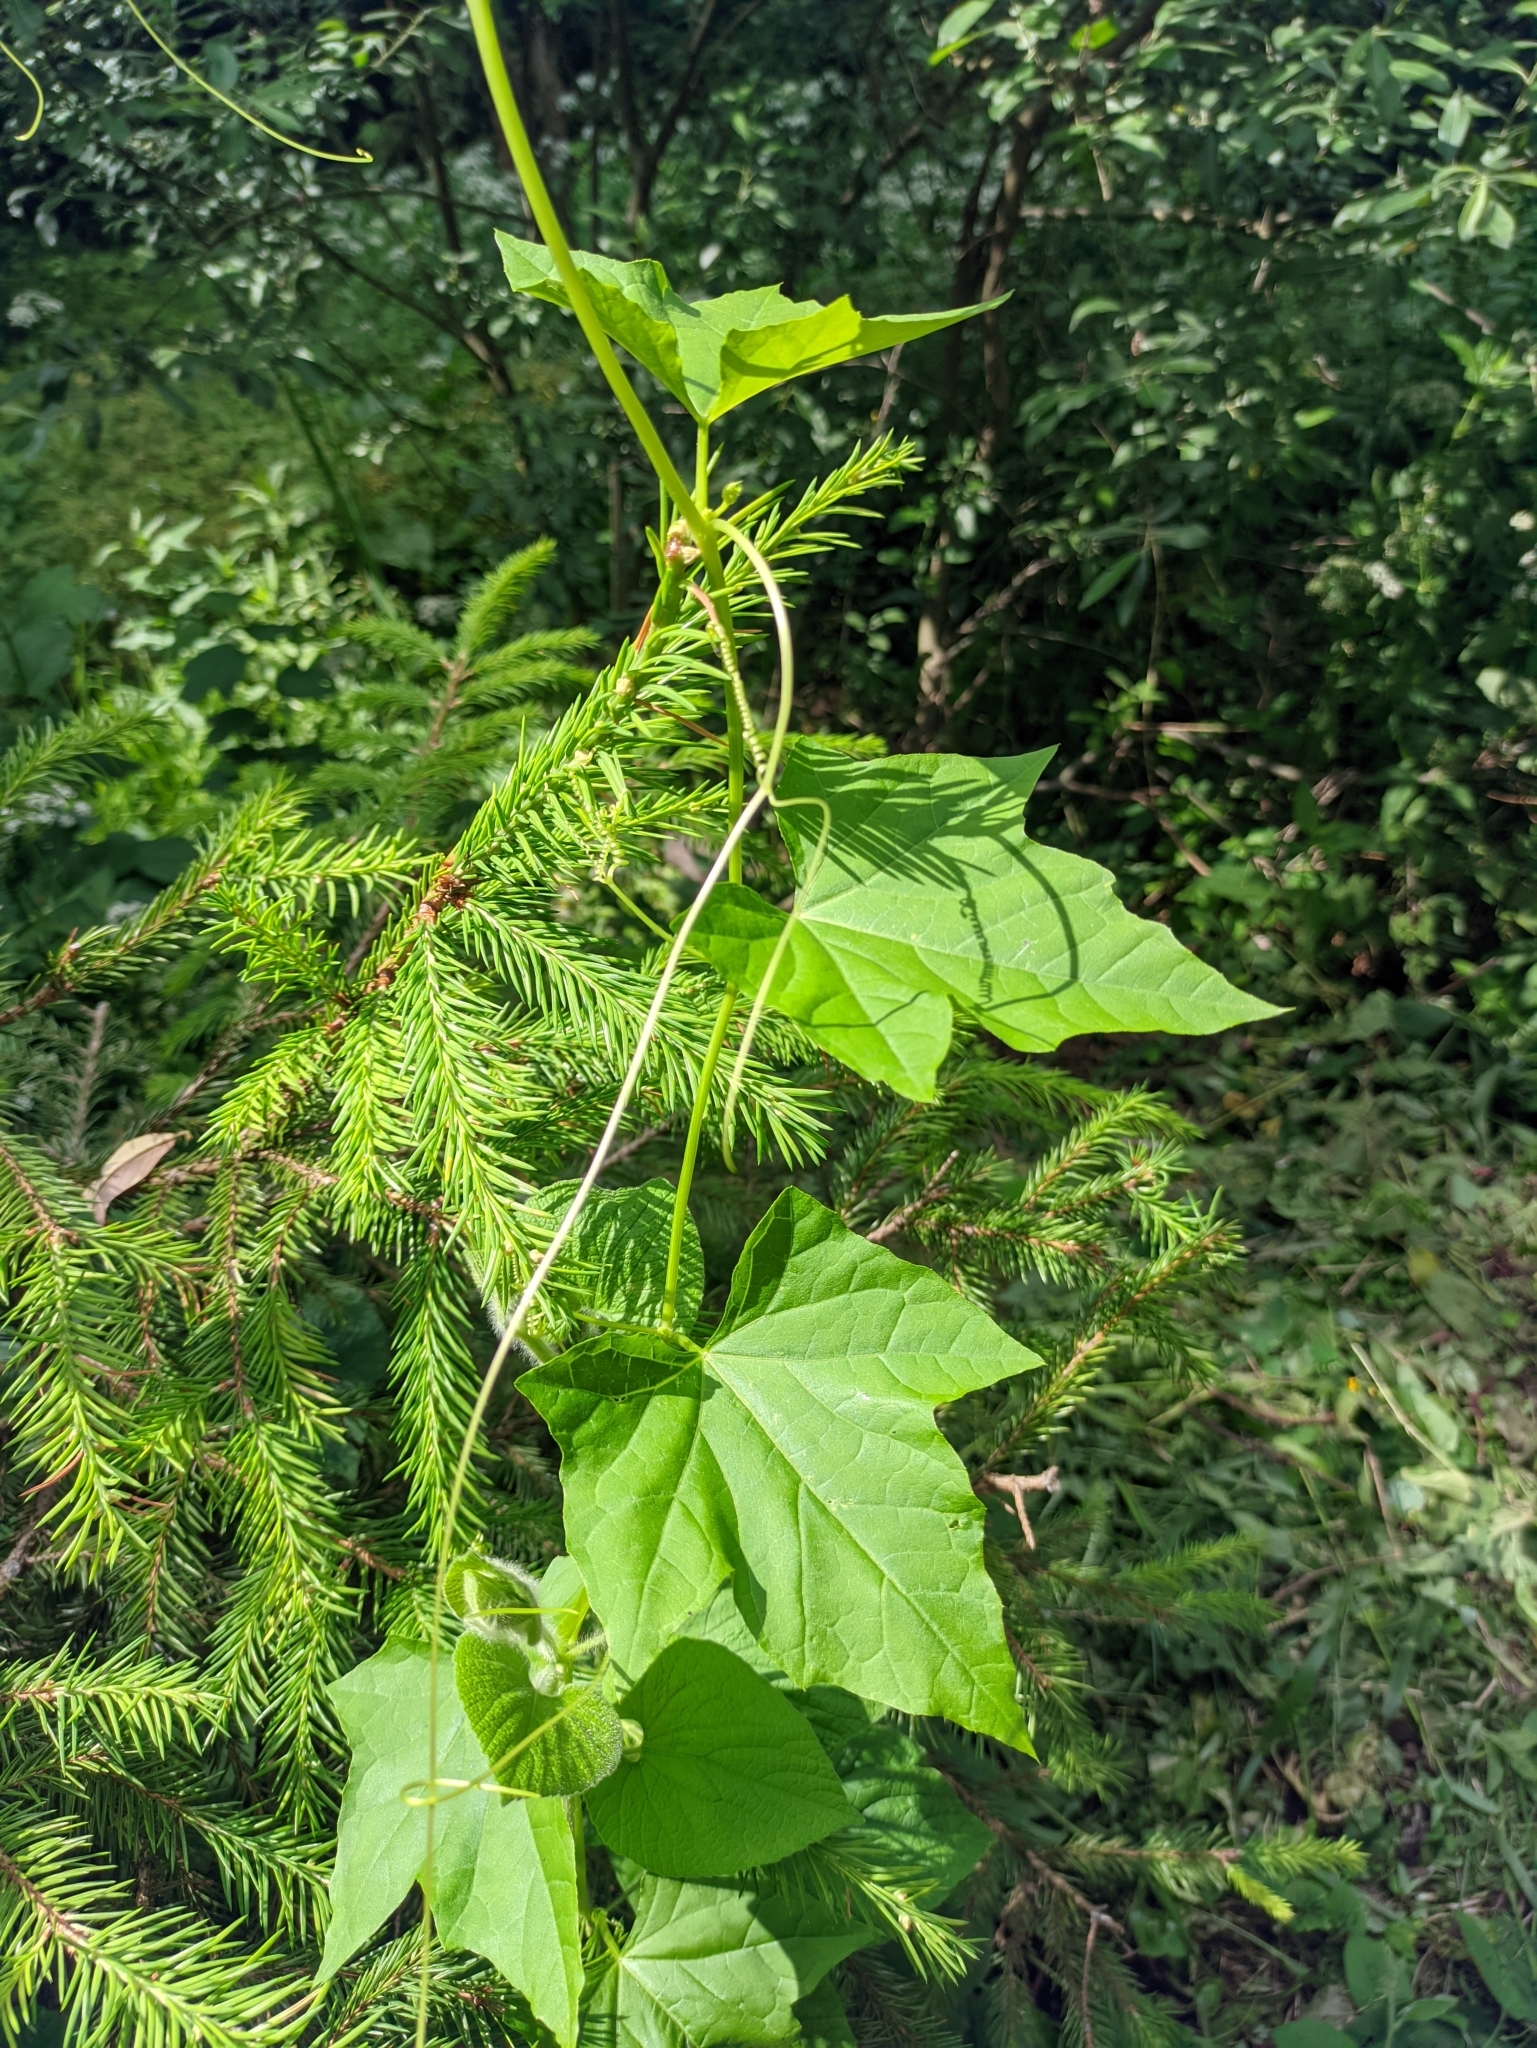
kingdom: Plantae
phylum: Tracheophyta
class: Magnoliopsida
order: Cucurbitales
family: Cucurbitaceae
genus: Thladiantha
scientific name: Thladiantha dubia
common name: Manchu tubergourd
